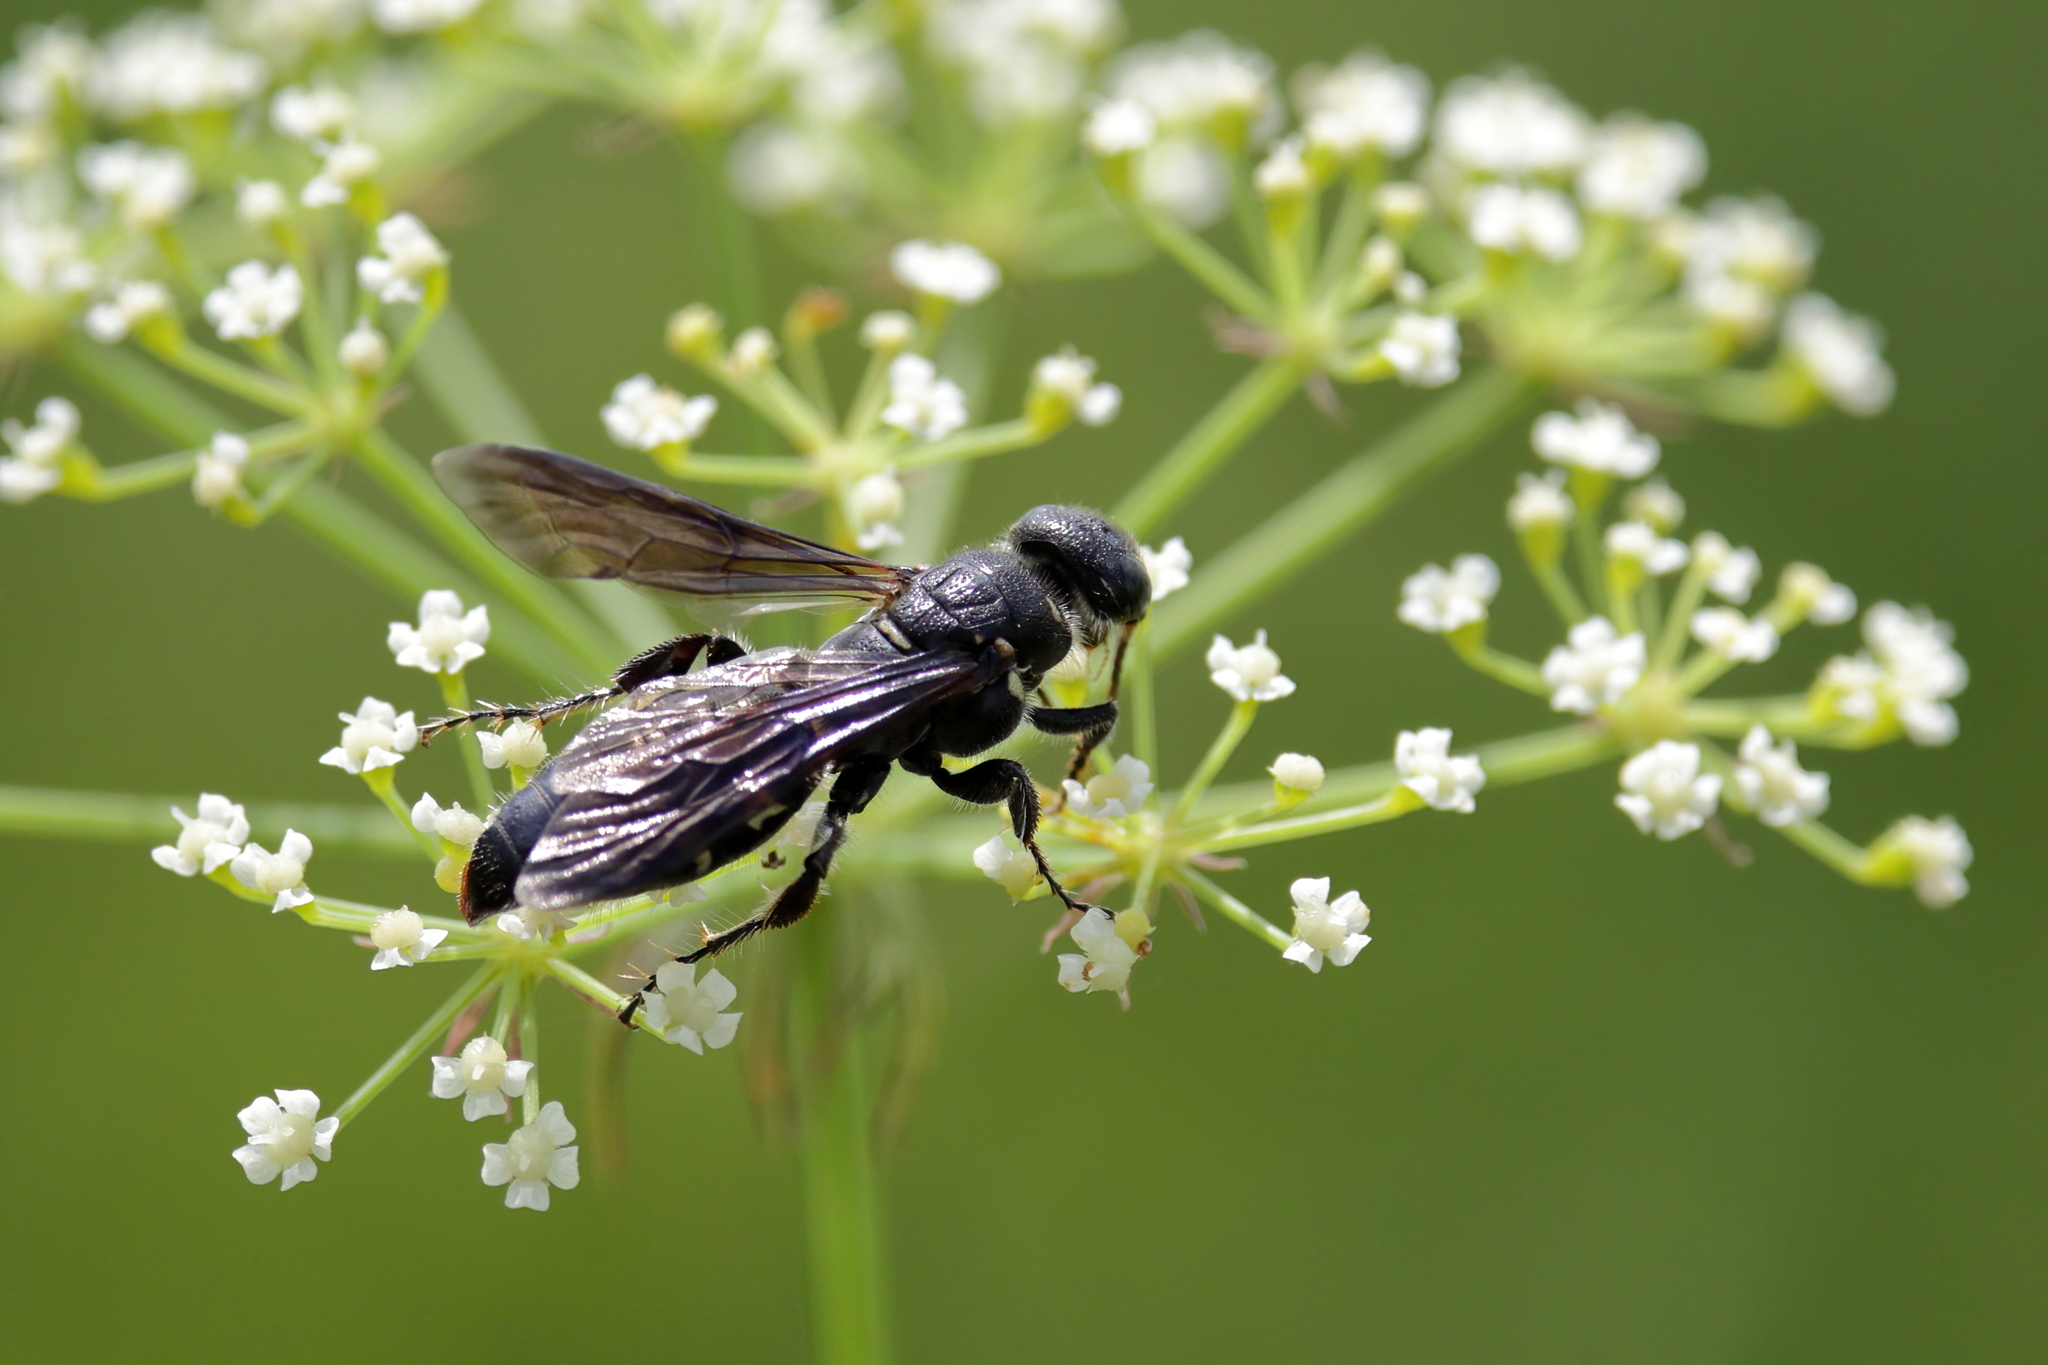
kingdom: Animalia
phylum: Arthropoda
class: Insecta
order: Hymenoptera
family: Tiphiidae
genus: Myzinum
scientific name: Myzinum obscurum
